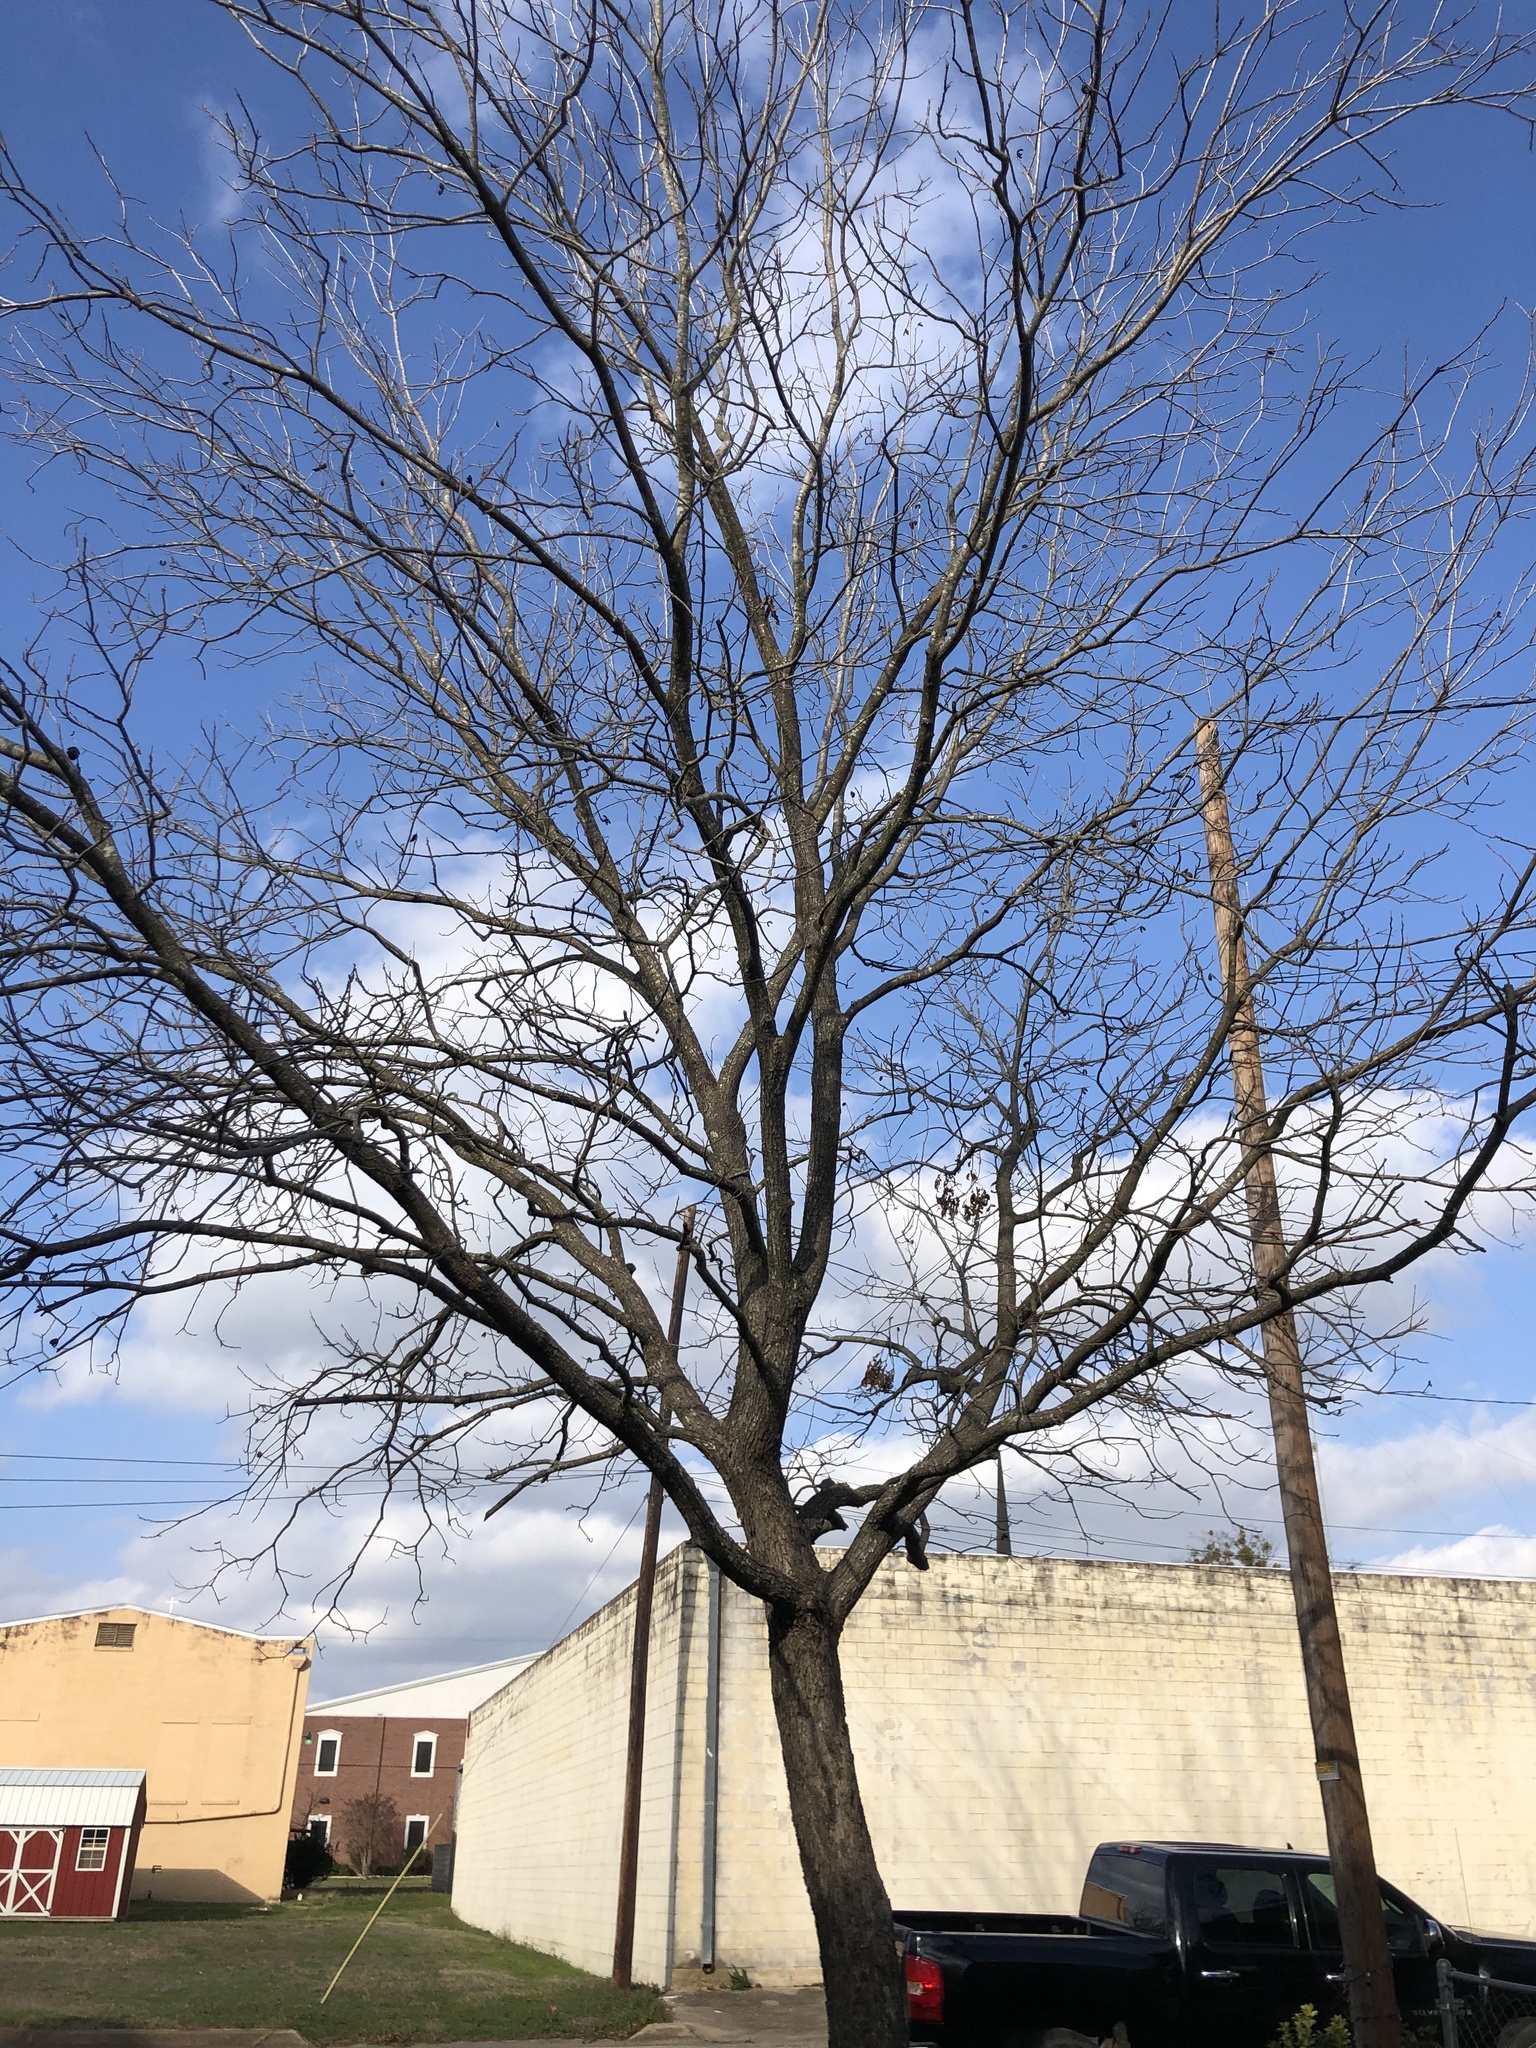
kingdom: Plantae
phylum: Tracheophyta
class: Magnoliopsida
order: Fagales
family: Juglandaceae
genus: Carya
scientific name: Carya illinoinensis
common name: Pecan
